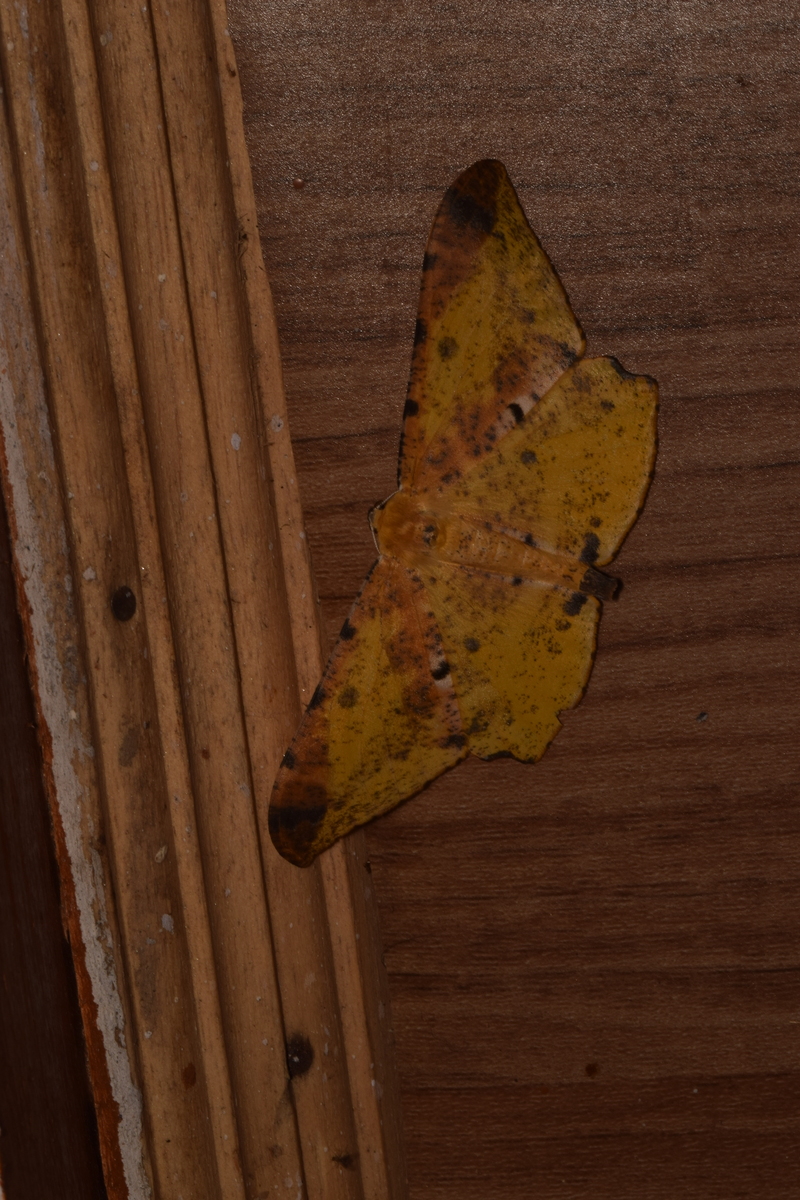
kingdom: Animalia
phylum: Arthropoda
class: Insecta
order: Lepidoptera
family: Geometridae
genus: Dalima
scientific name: Dalima apicata
